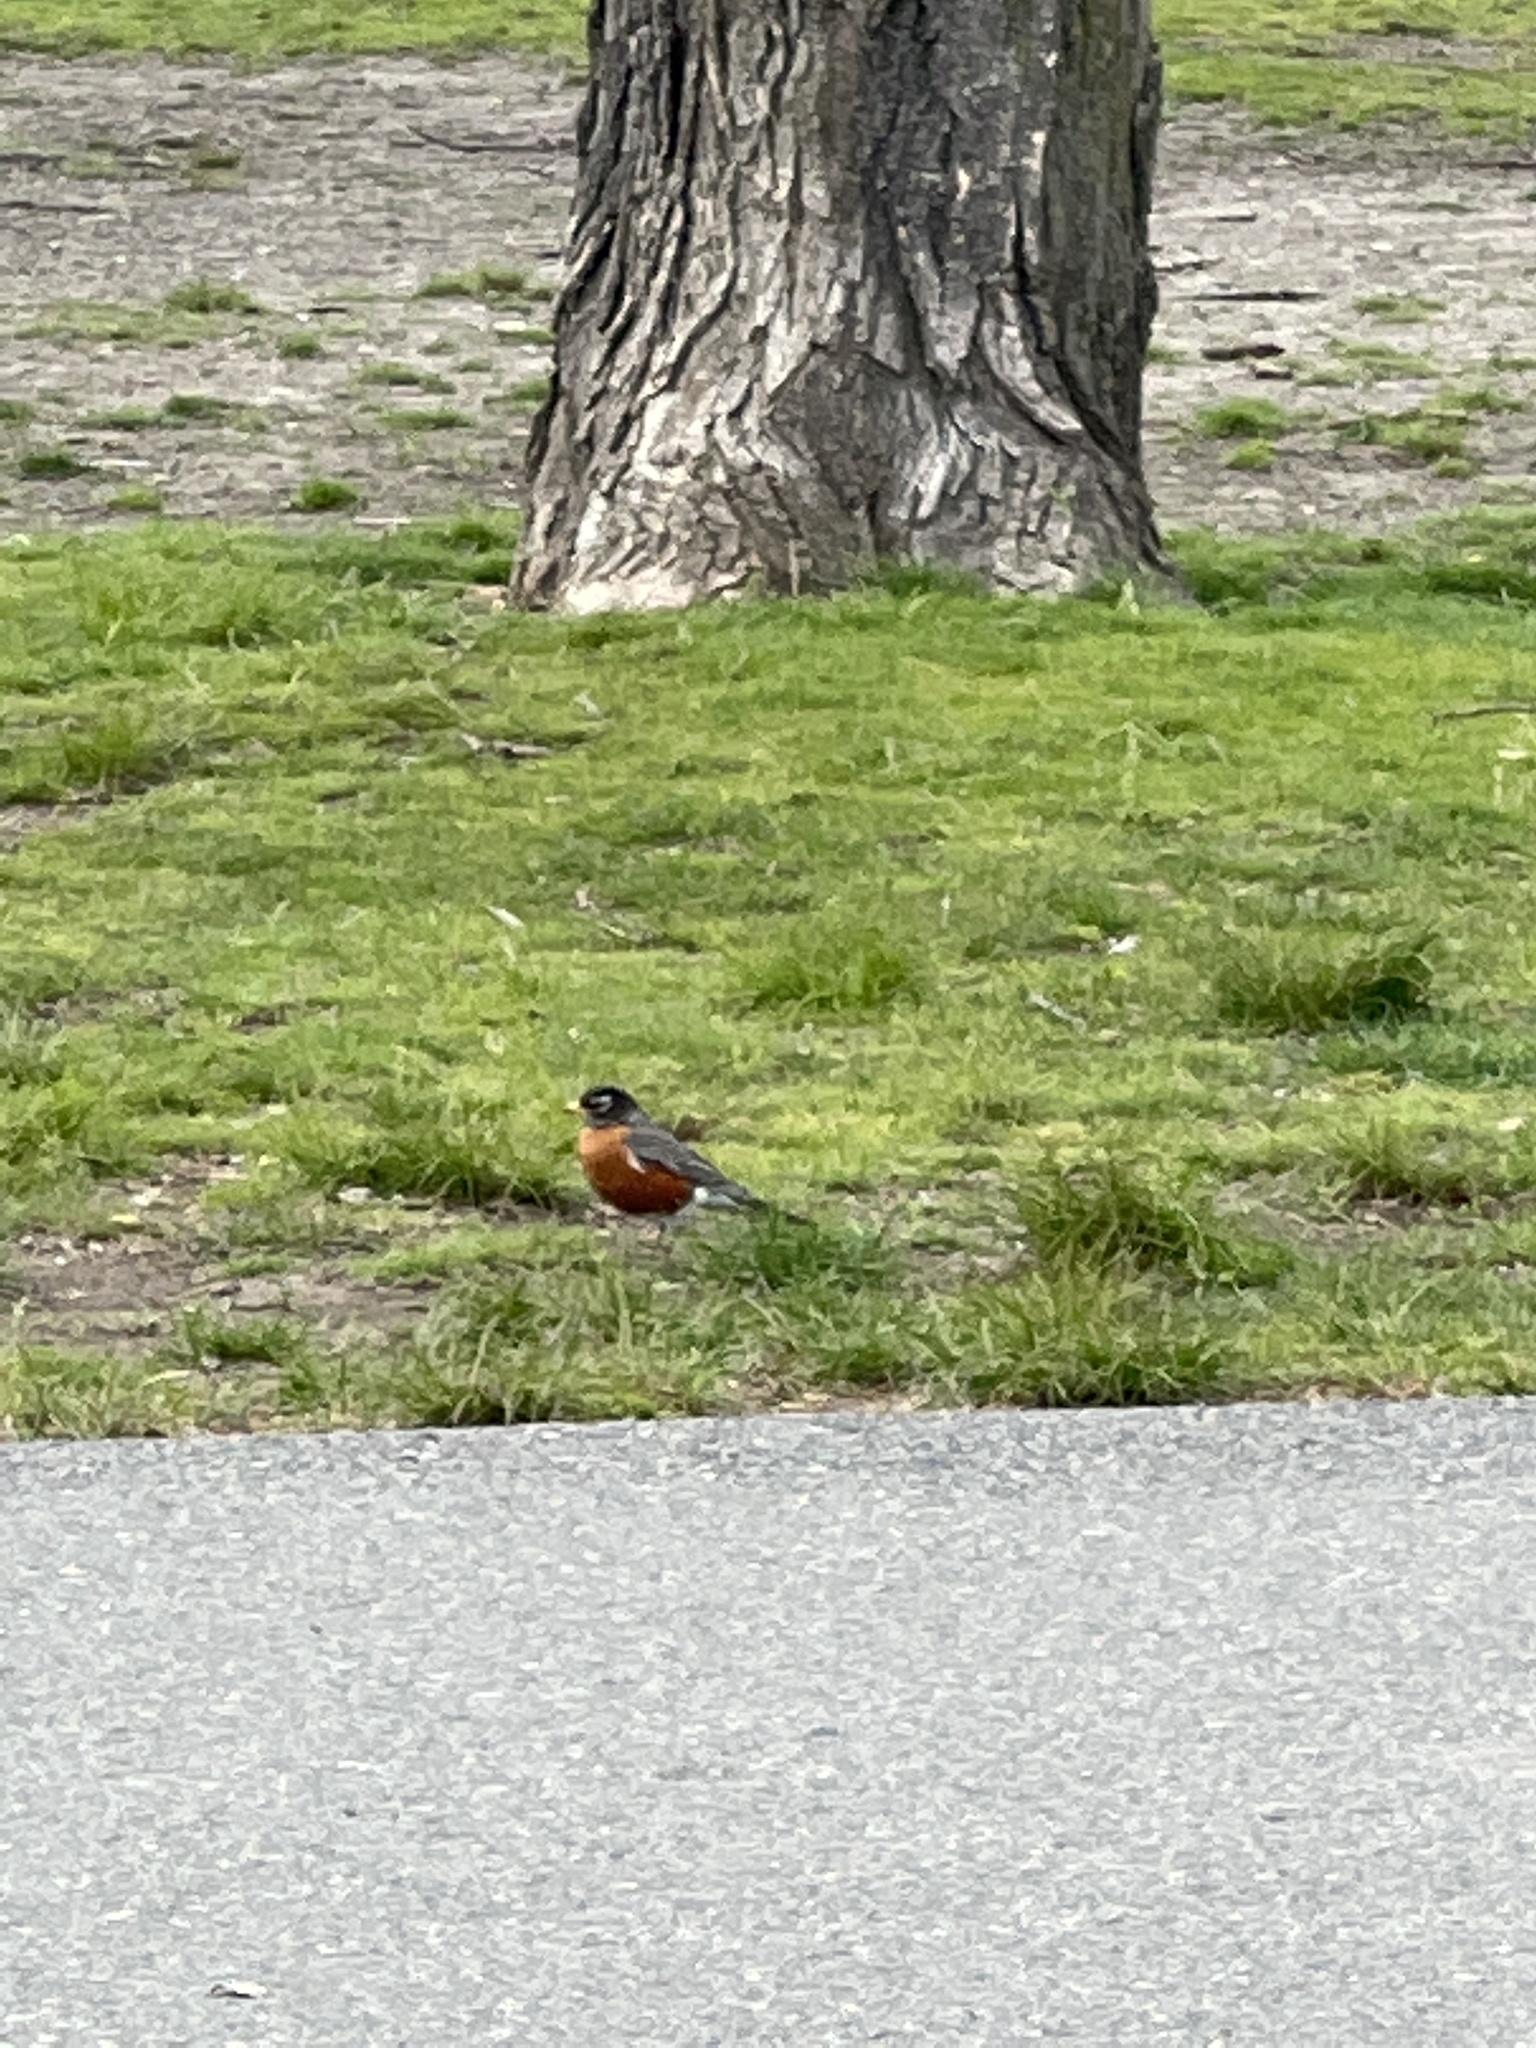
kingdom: Animalia
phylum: Chordata
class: Aves
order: Passeriformes
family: Turdidae
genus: Turdus
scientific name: Turdus migratorius
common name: American robin
